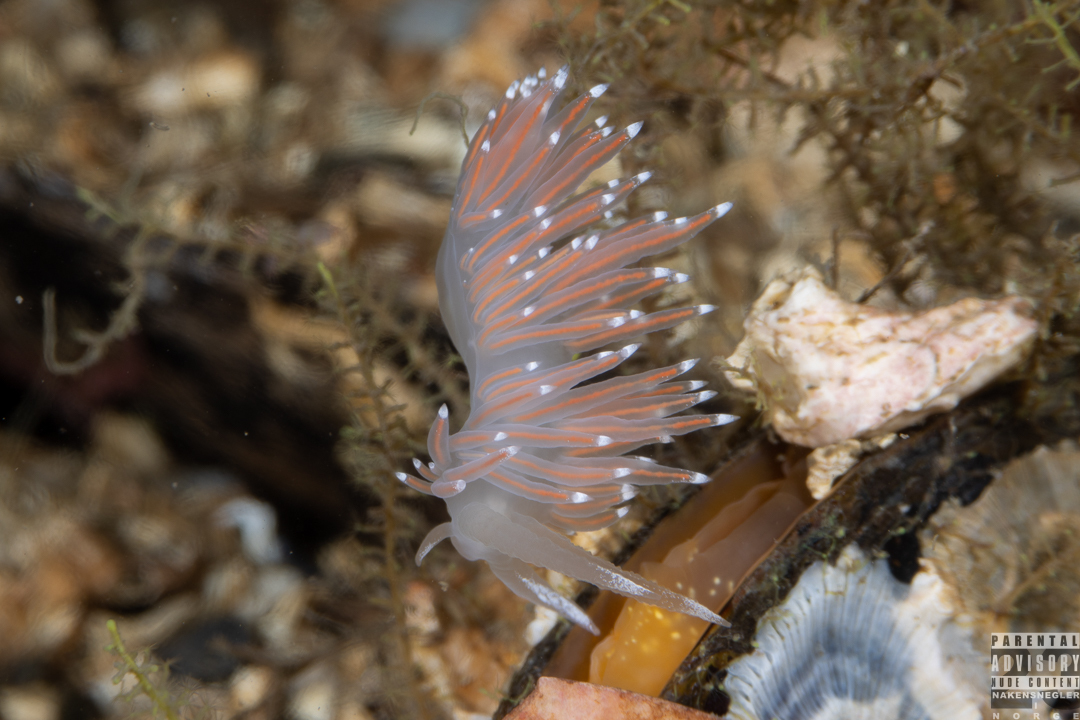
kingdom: Animalia
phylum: Mollusca
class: Gastropoda
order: Nudibranchia
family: Coryphellidae
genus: Coryphella
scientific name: Coryphella browni
